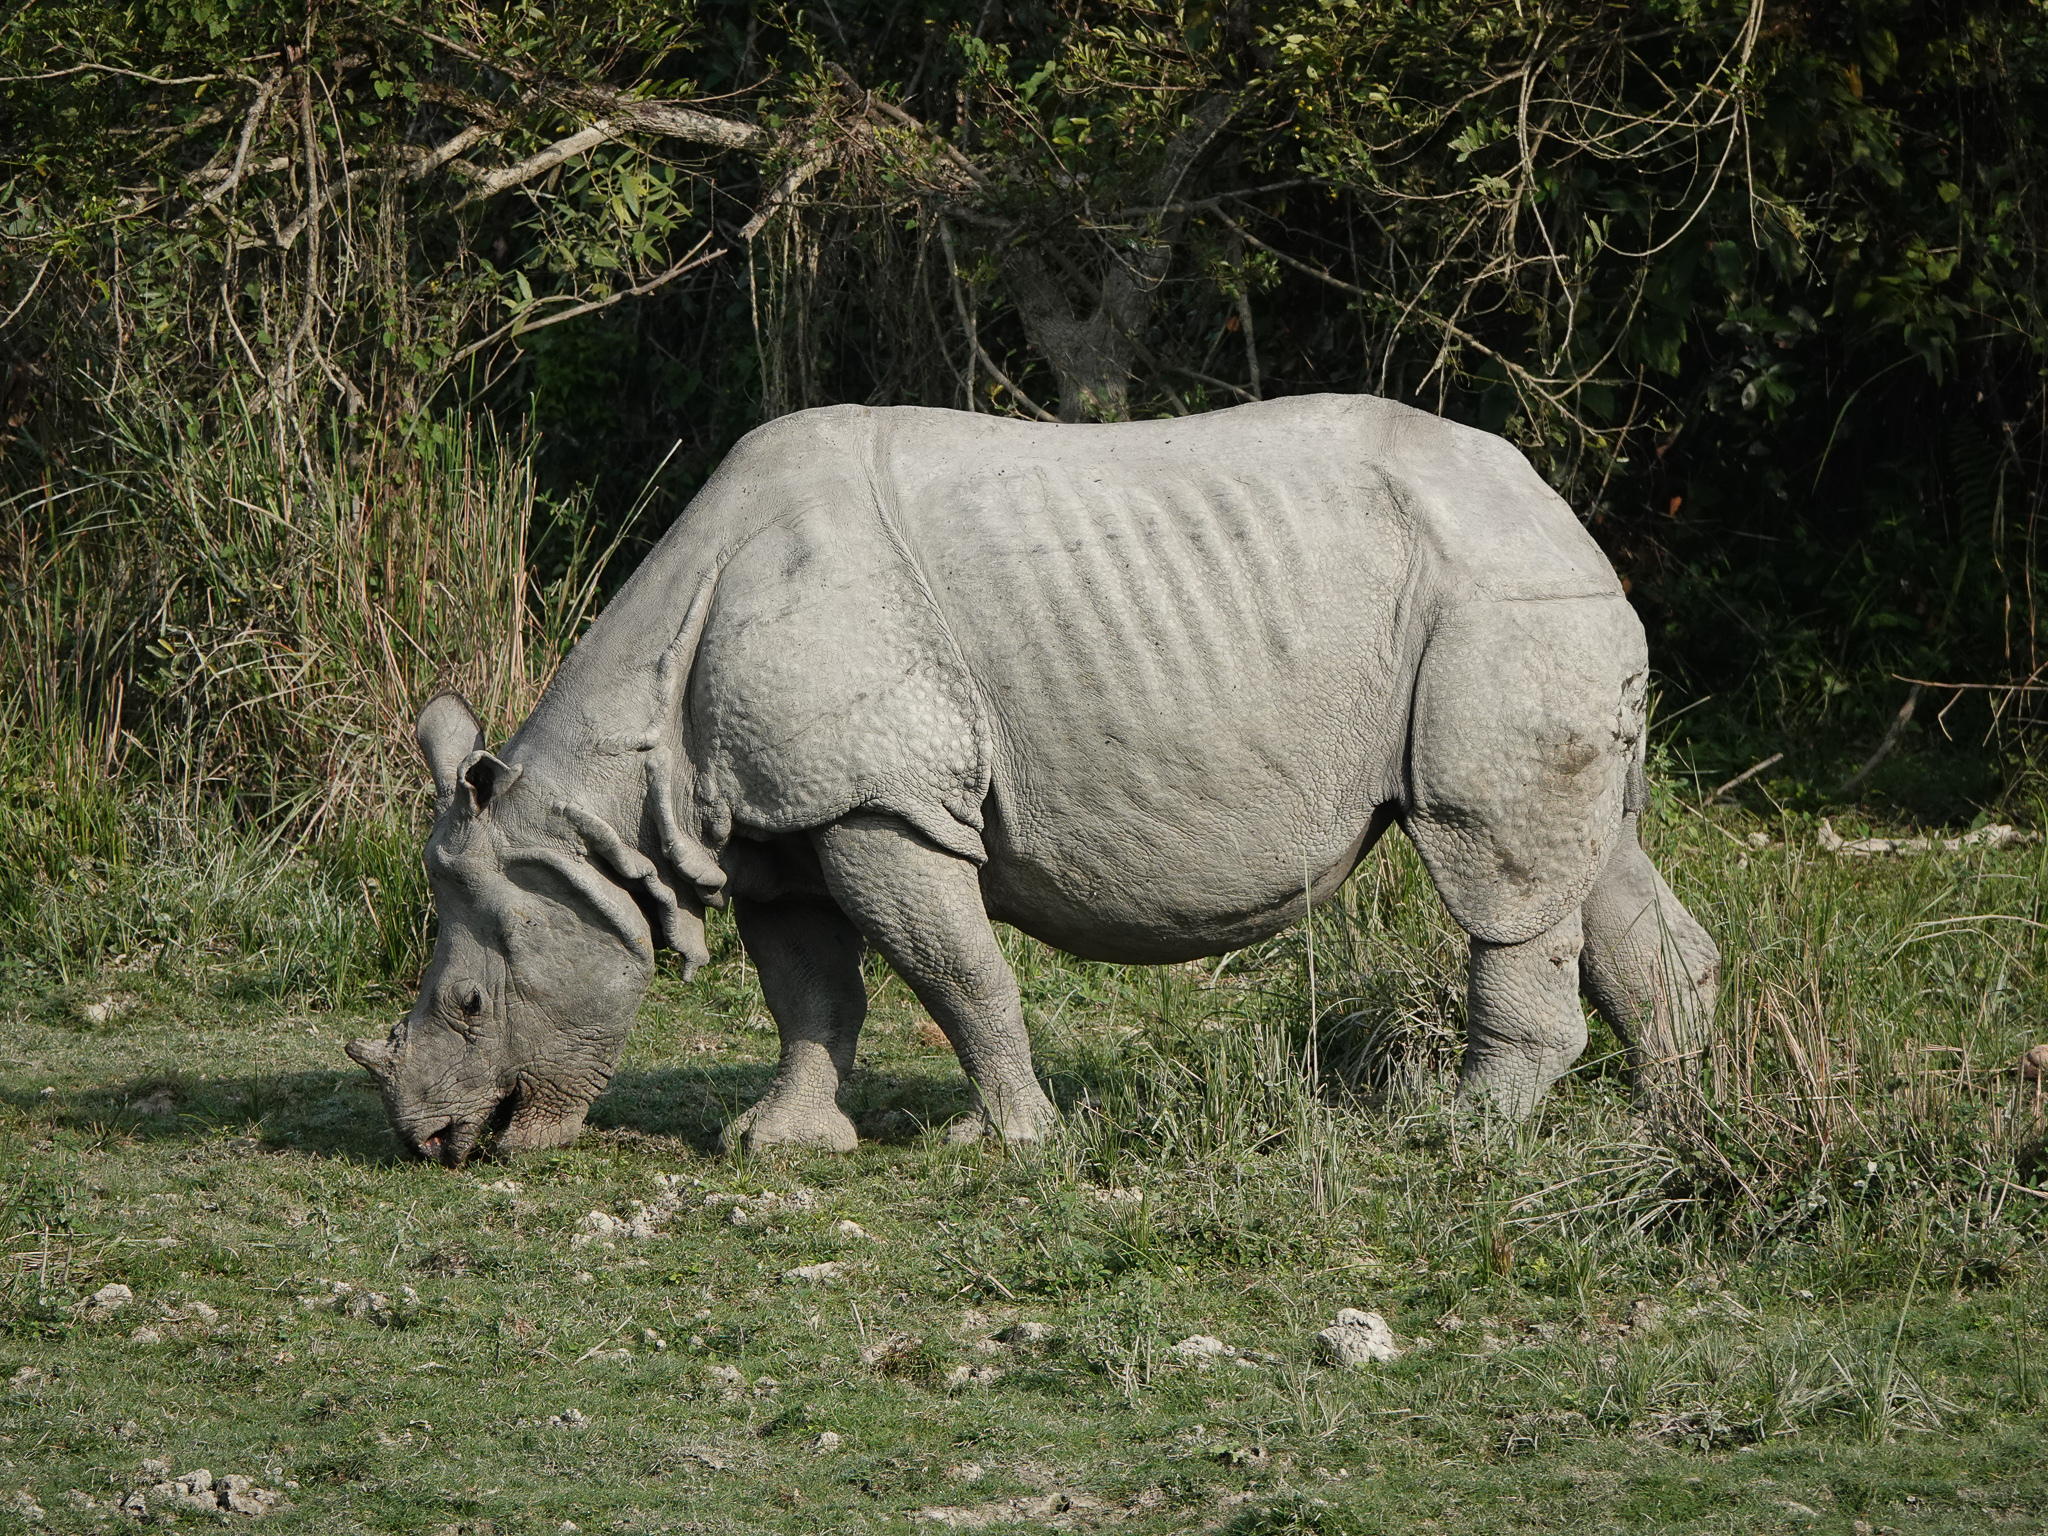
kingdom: Animalia
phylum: Chordata
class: Mammalia
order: Perissodactyla
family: Rhinocerotidae
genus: Rhinoceros
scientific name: Rhinoceros unicornis
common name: Indian rhinoceros
